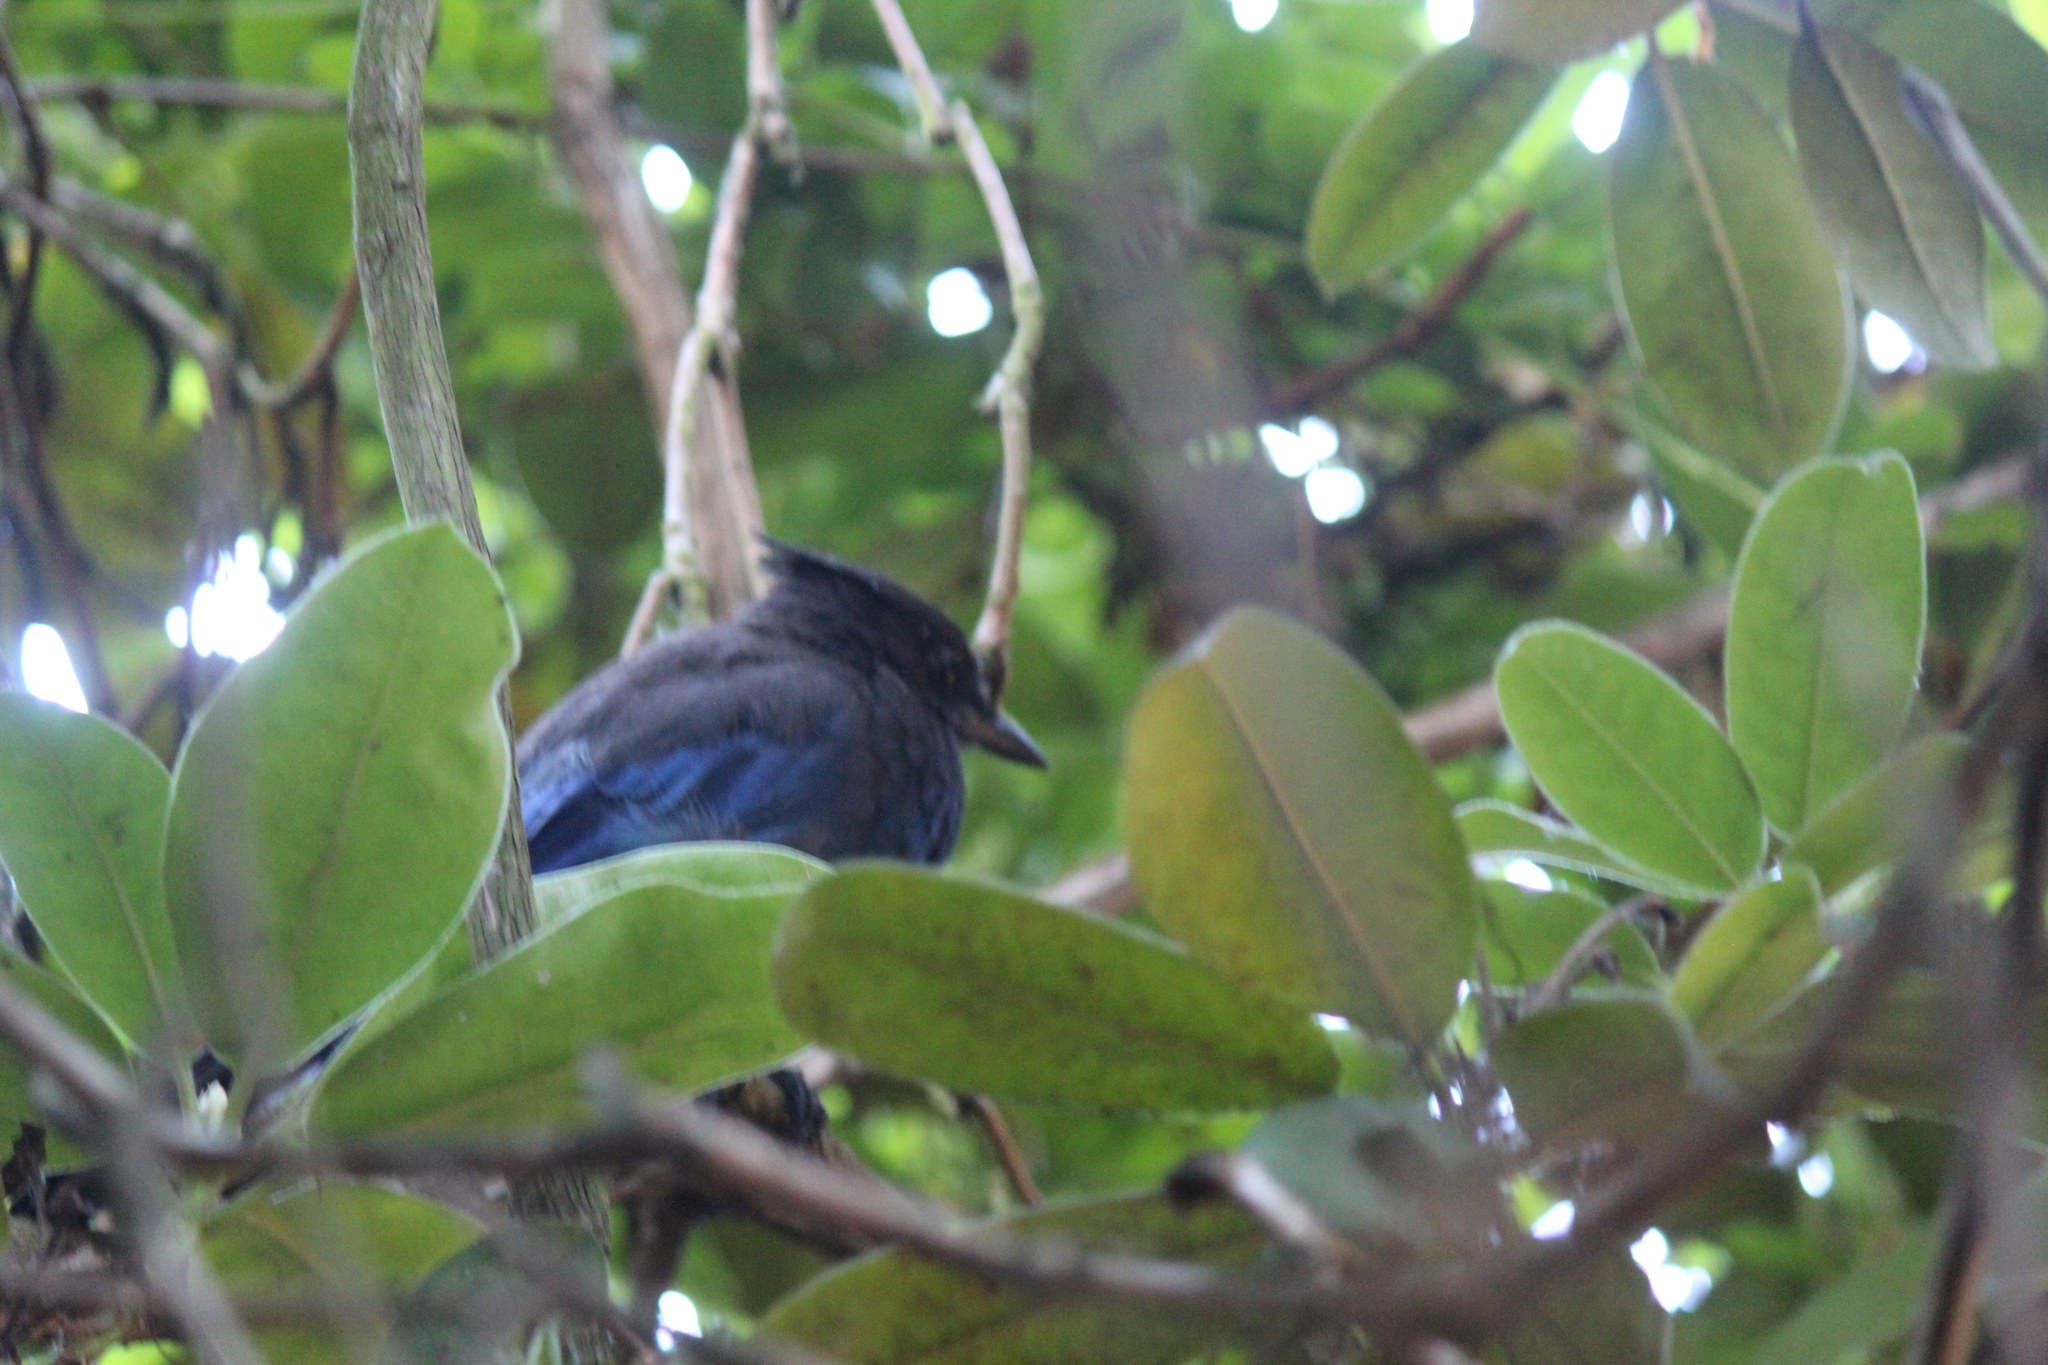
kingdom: Animalia
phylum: Chordata
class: Aves
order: Passeriformes
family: Corvidae
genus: Cyanocitta
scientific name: Cyanocitta stelleri
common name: Steller's jay
